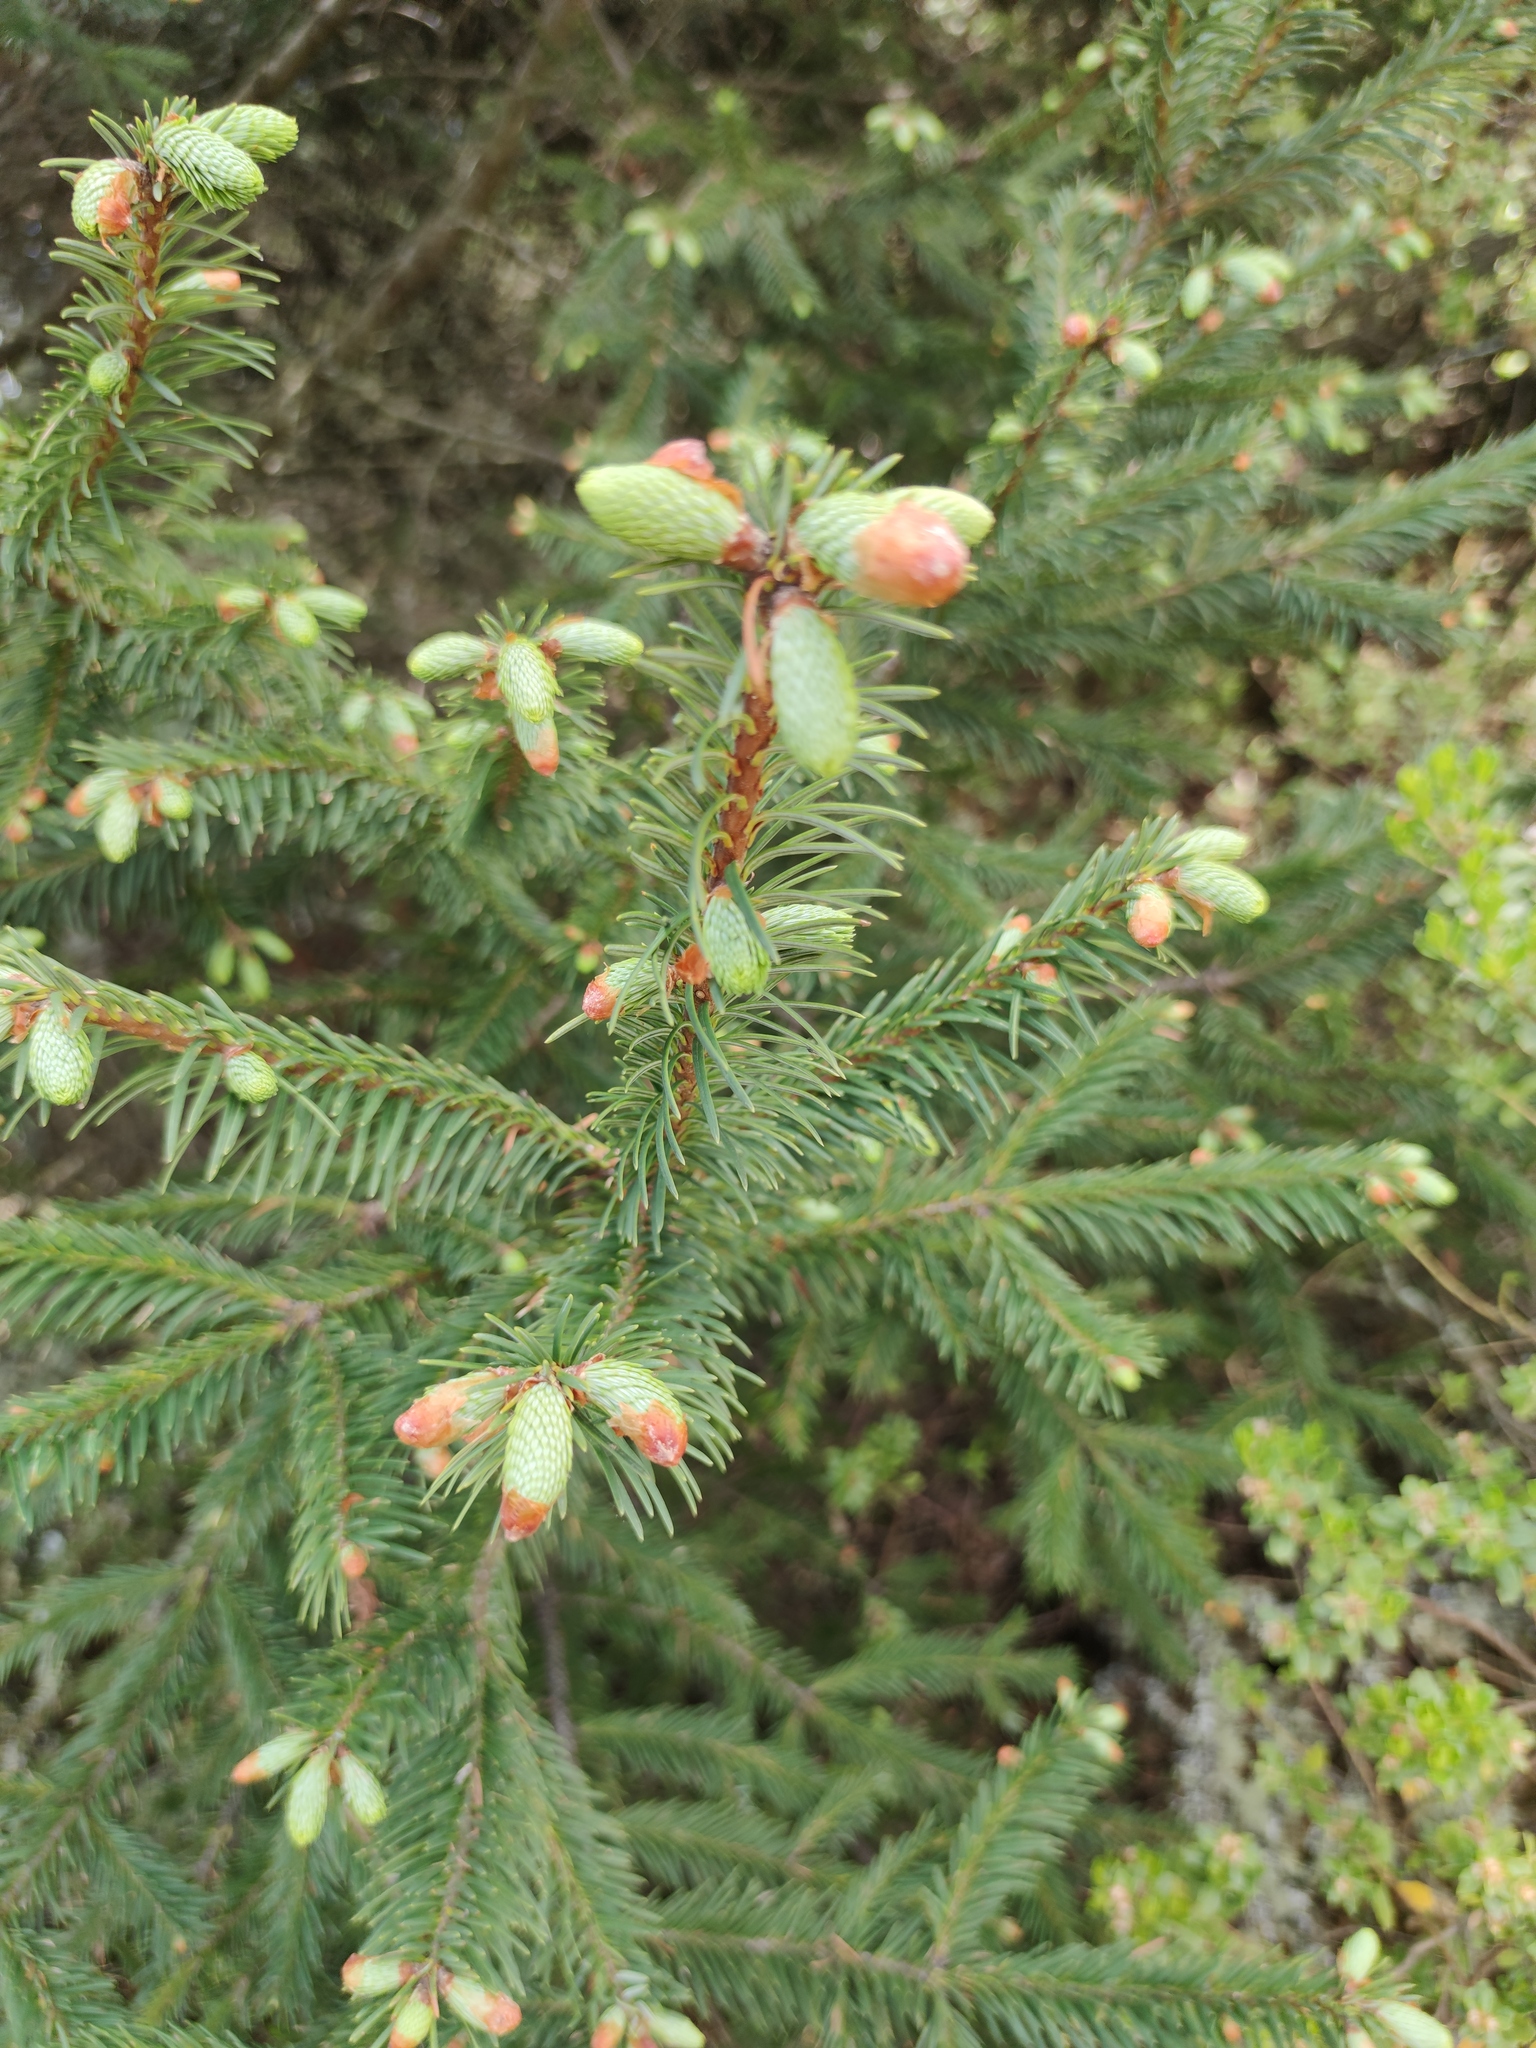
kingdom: Plantae
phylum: Tracheophyta
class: Pinopsida
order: Pinales
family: Pinaceae
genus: Abies
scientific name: Abies religiosa
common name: Sacred fir
